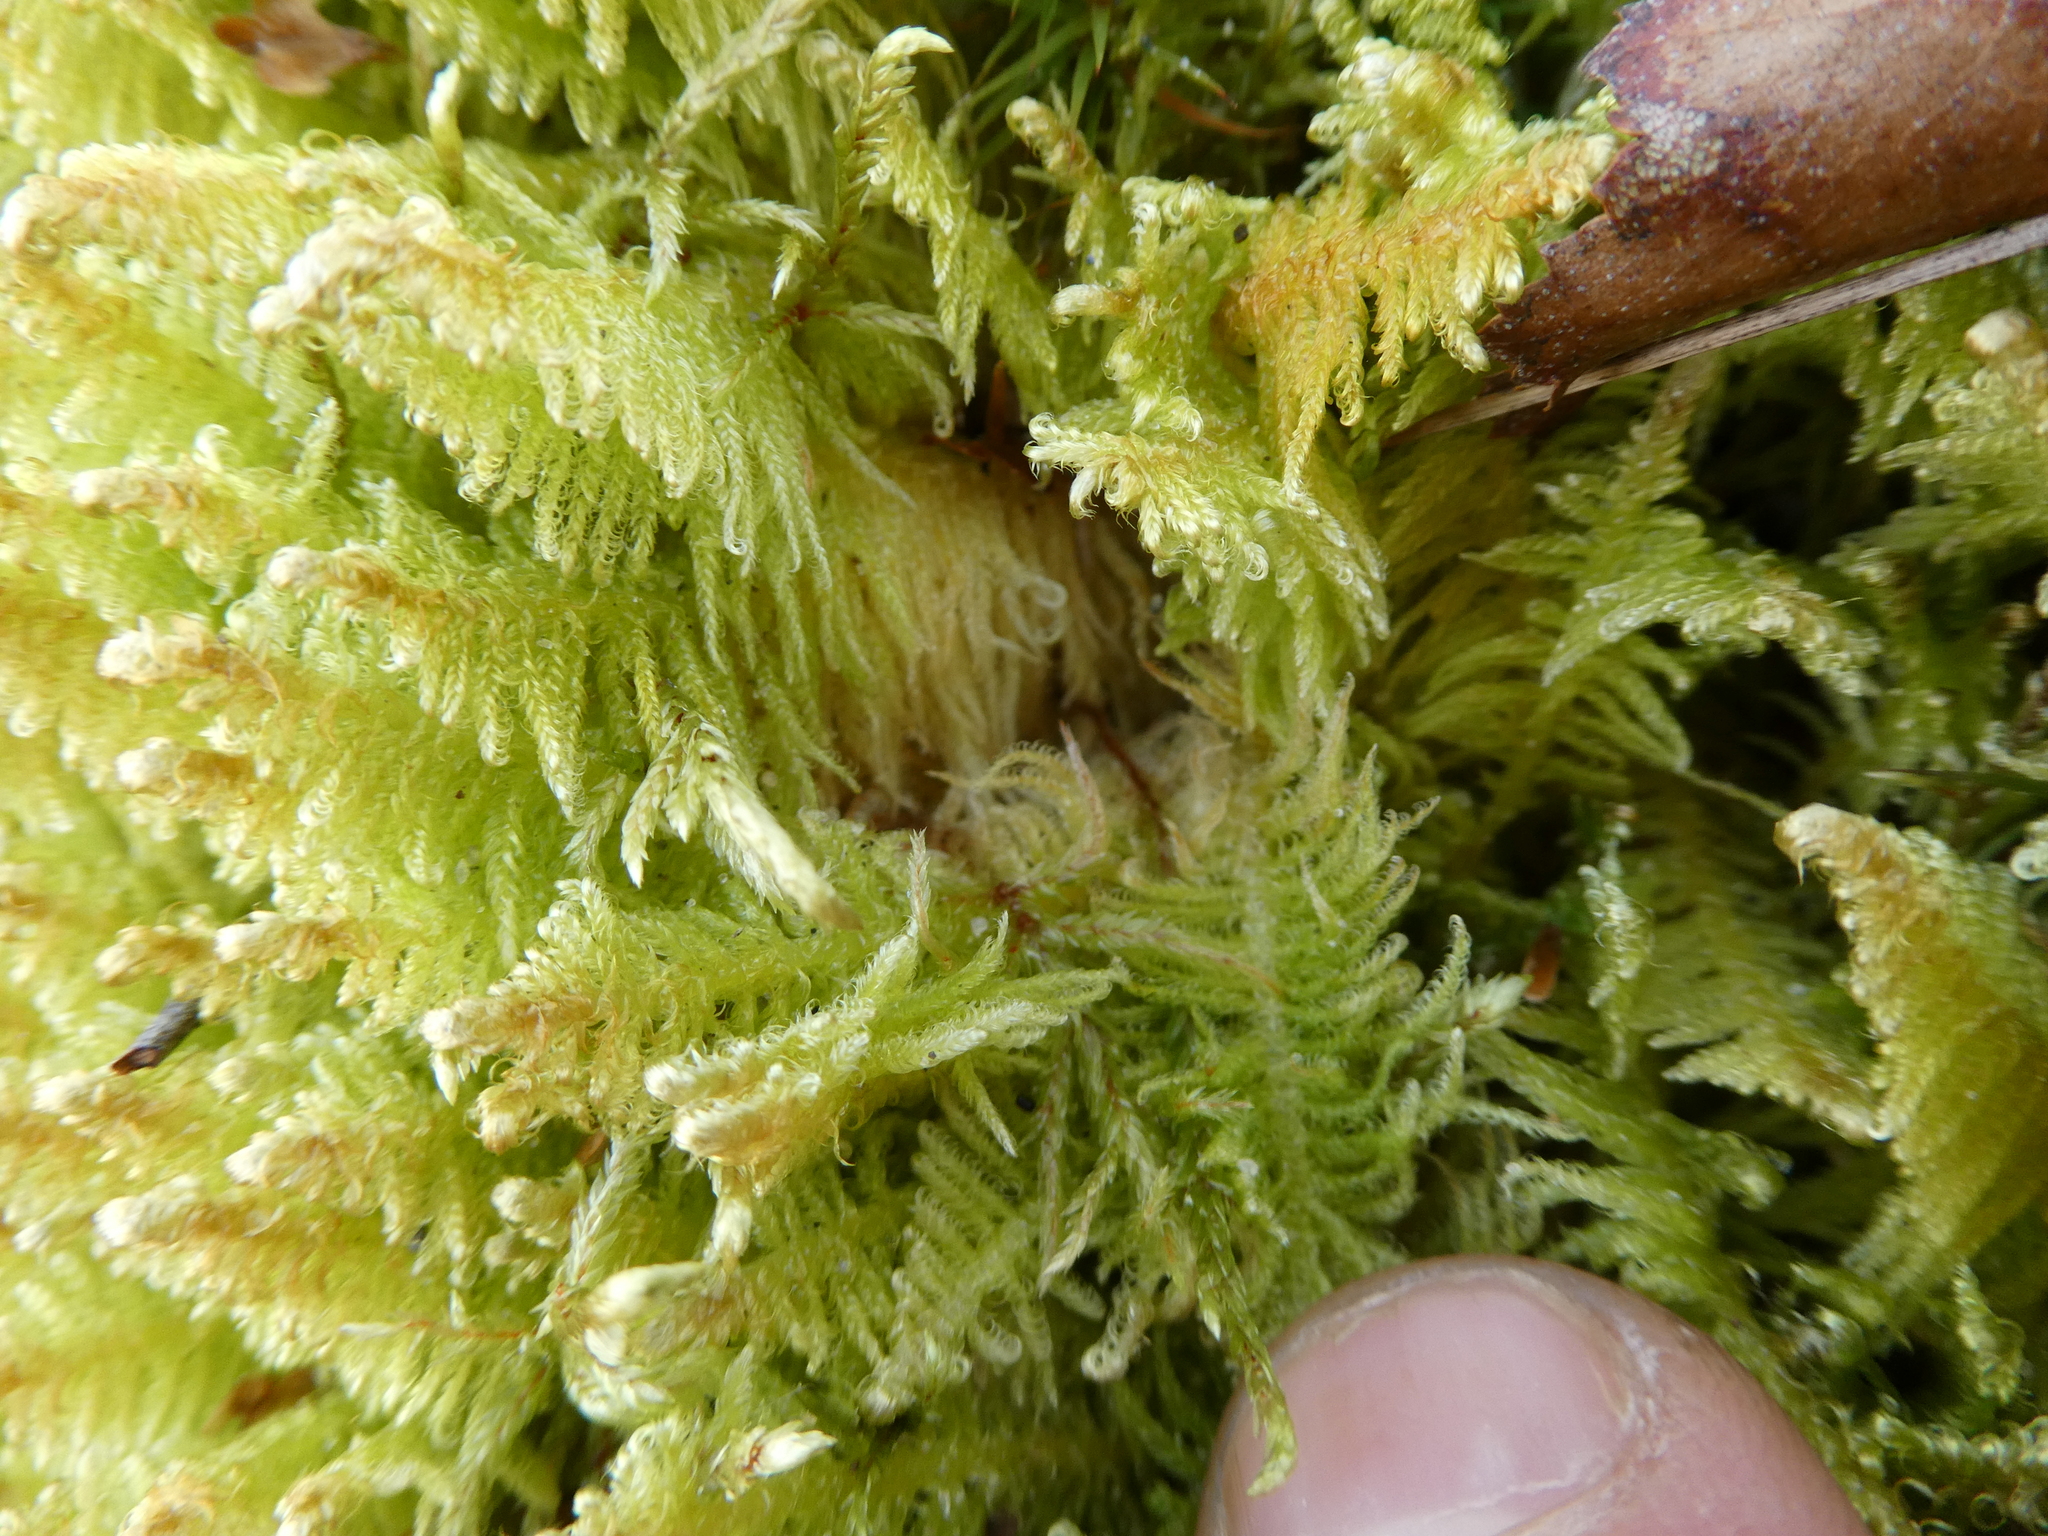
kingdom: Plantae
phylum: Bryophyta
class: Bryopsida
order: Hypnales
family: Pylaisiaceae
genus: Ptilium
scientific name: Ptilium crista-castrensis
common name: Knight's plume moss
